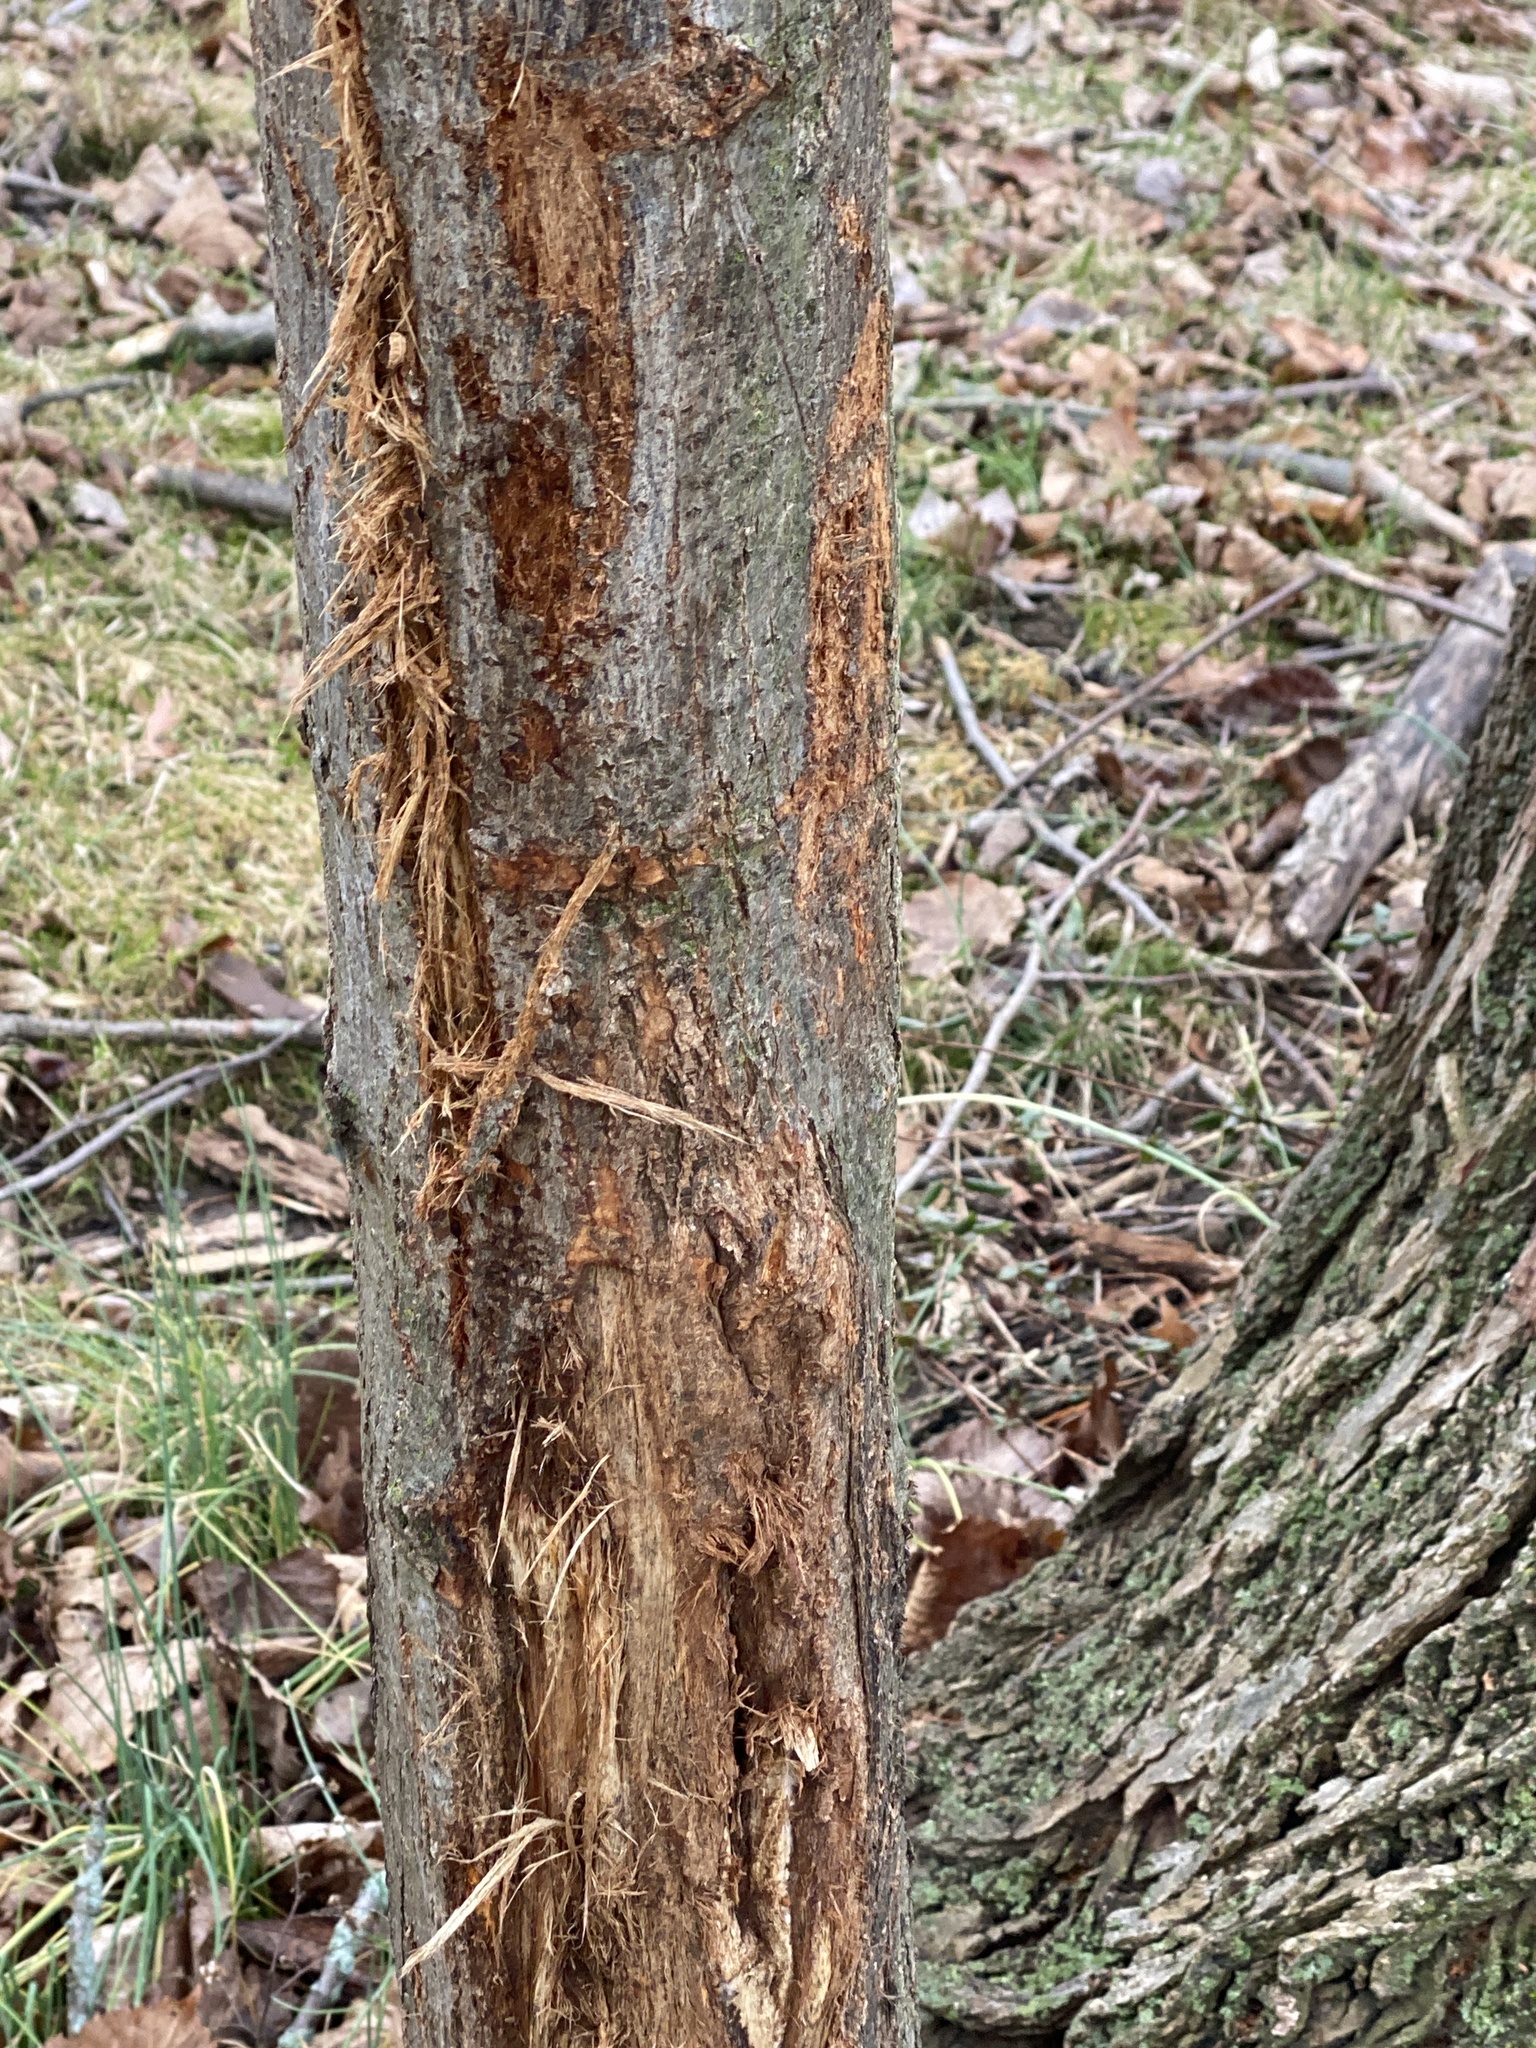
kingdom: Animalia
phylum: Chordata
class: Mammalia
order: Artiodactyla
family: Cervidae
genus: Odocoileus
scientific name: Odocoileus virginianus
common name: White-tailed deer
